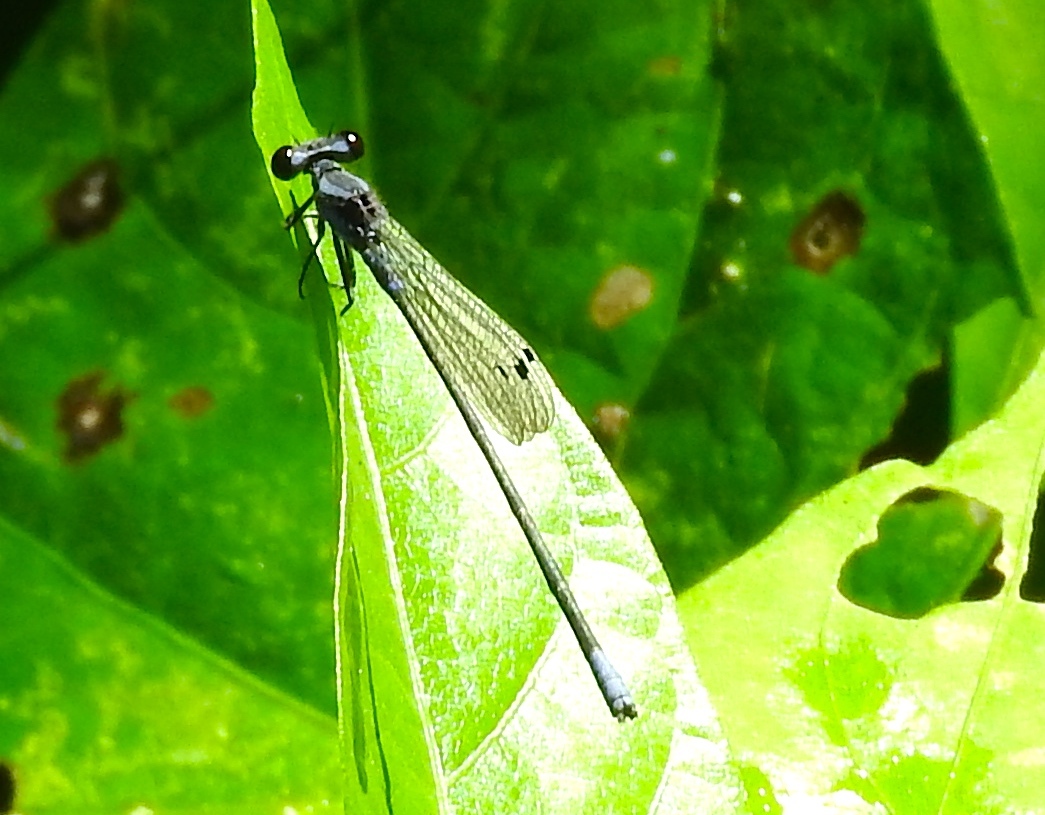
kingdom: Animalia
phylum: Arthropoda
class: Insecta
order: Odonata
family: Coenagrionidae
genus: Argia
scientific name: Argia
